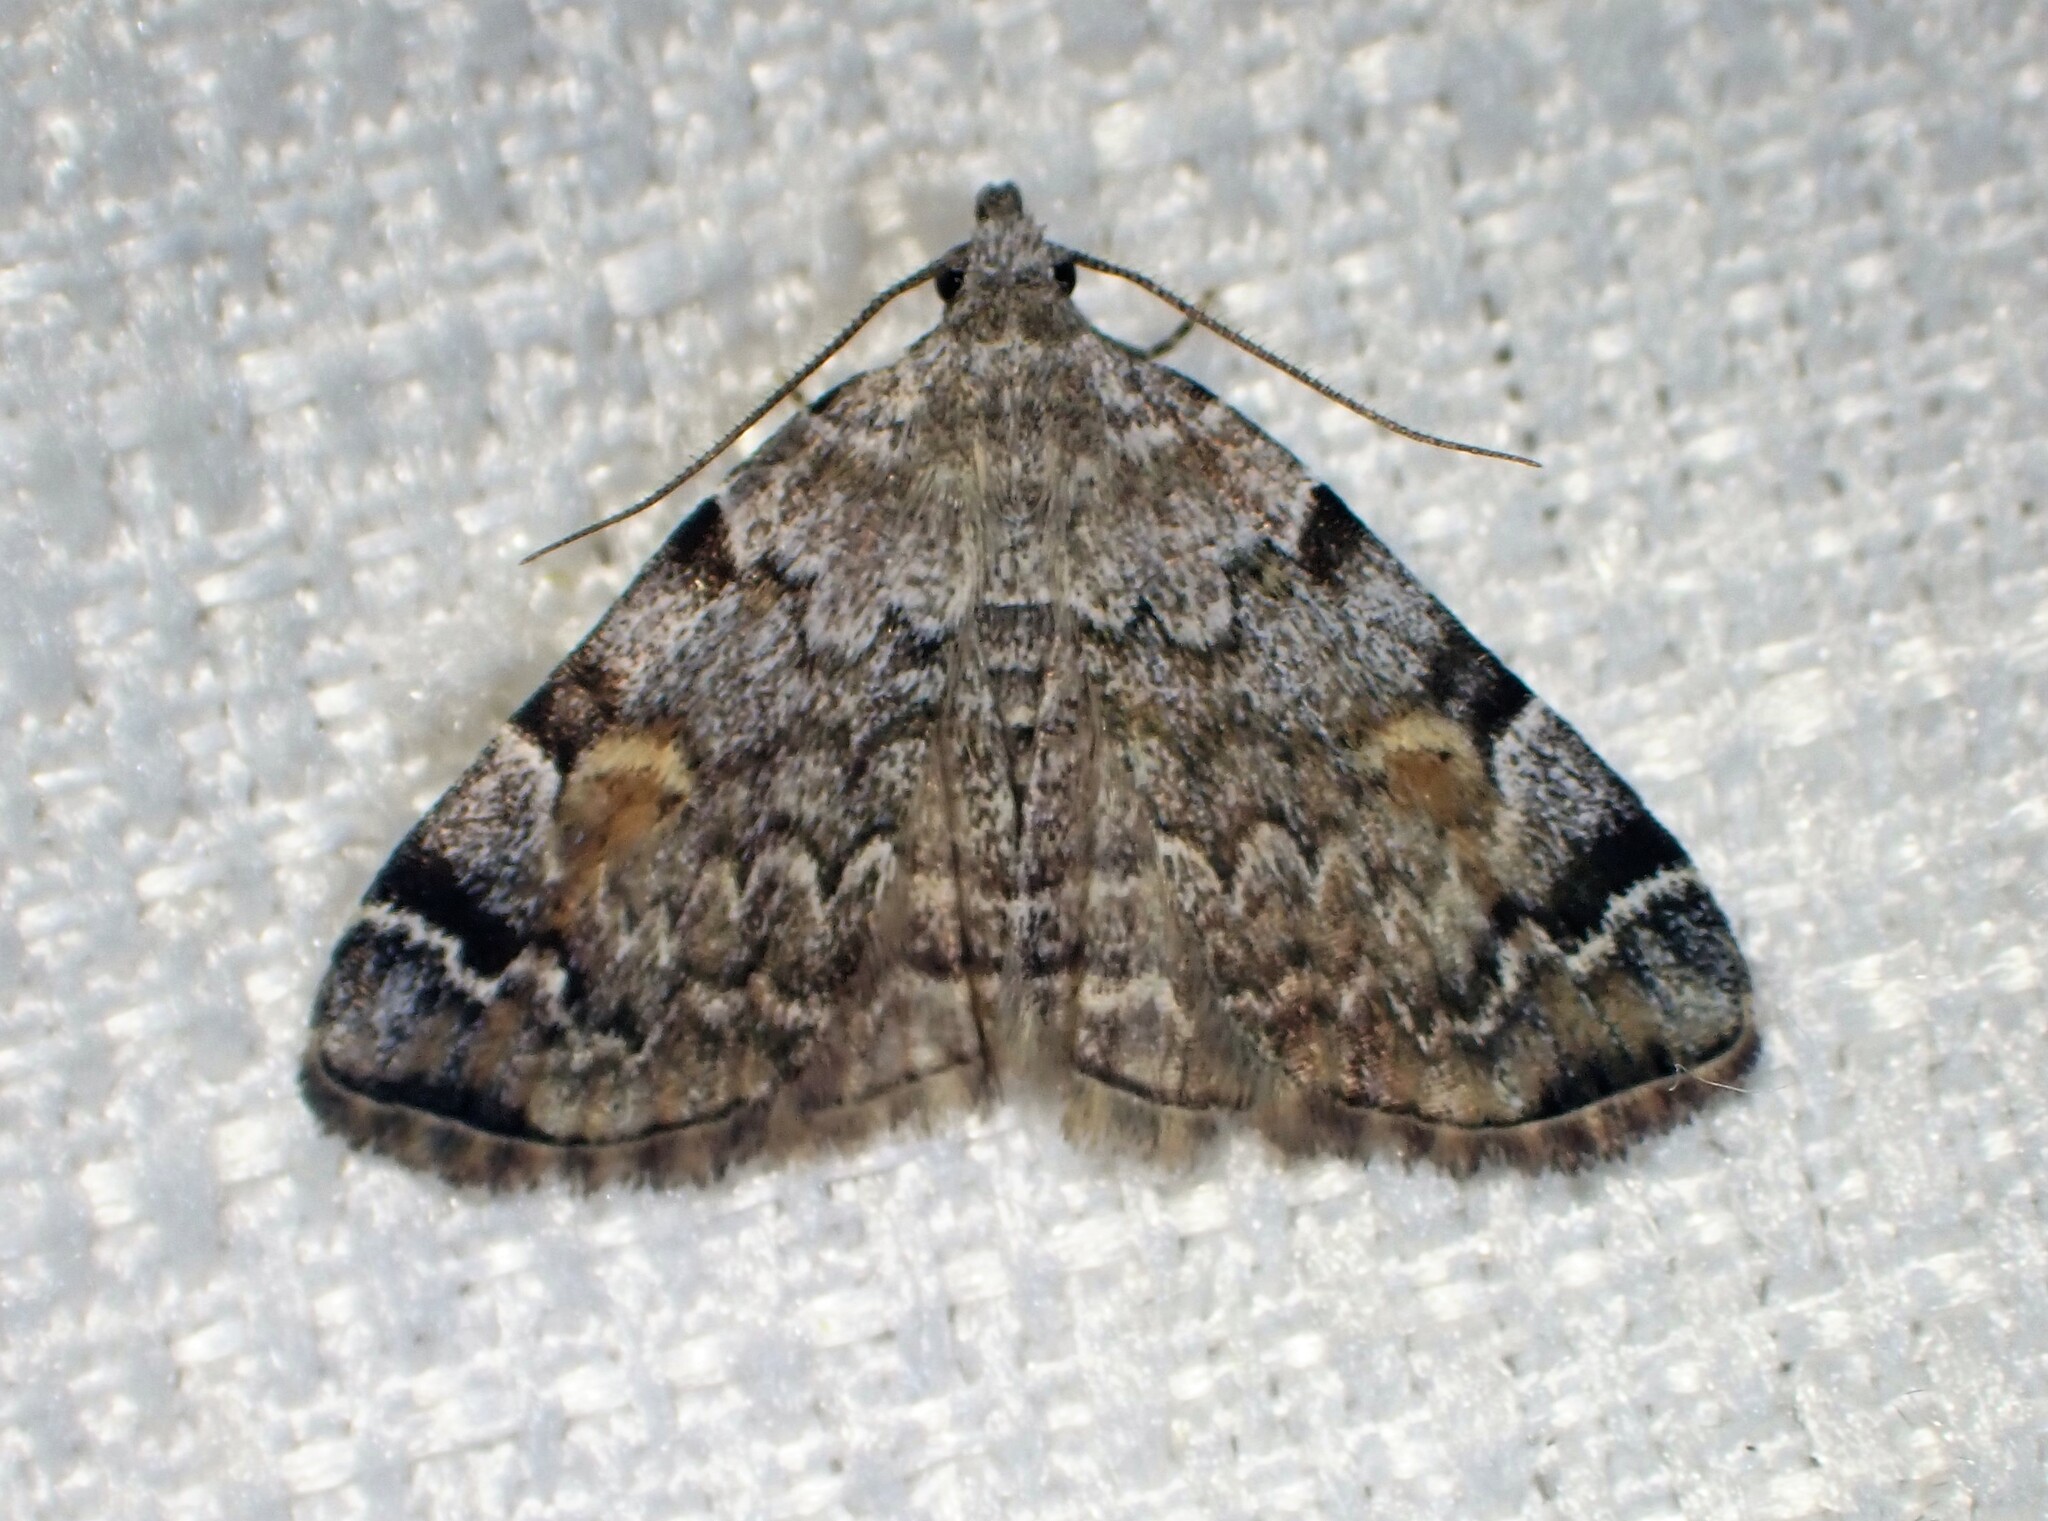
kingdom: Animalia
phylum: Arthropoda
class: Insecta
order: Lepidoptera
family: Erebidae
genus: Idia
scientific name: Idia americalis
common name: American idia moth
